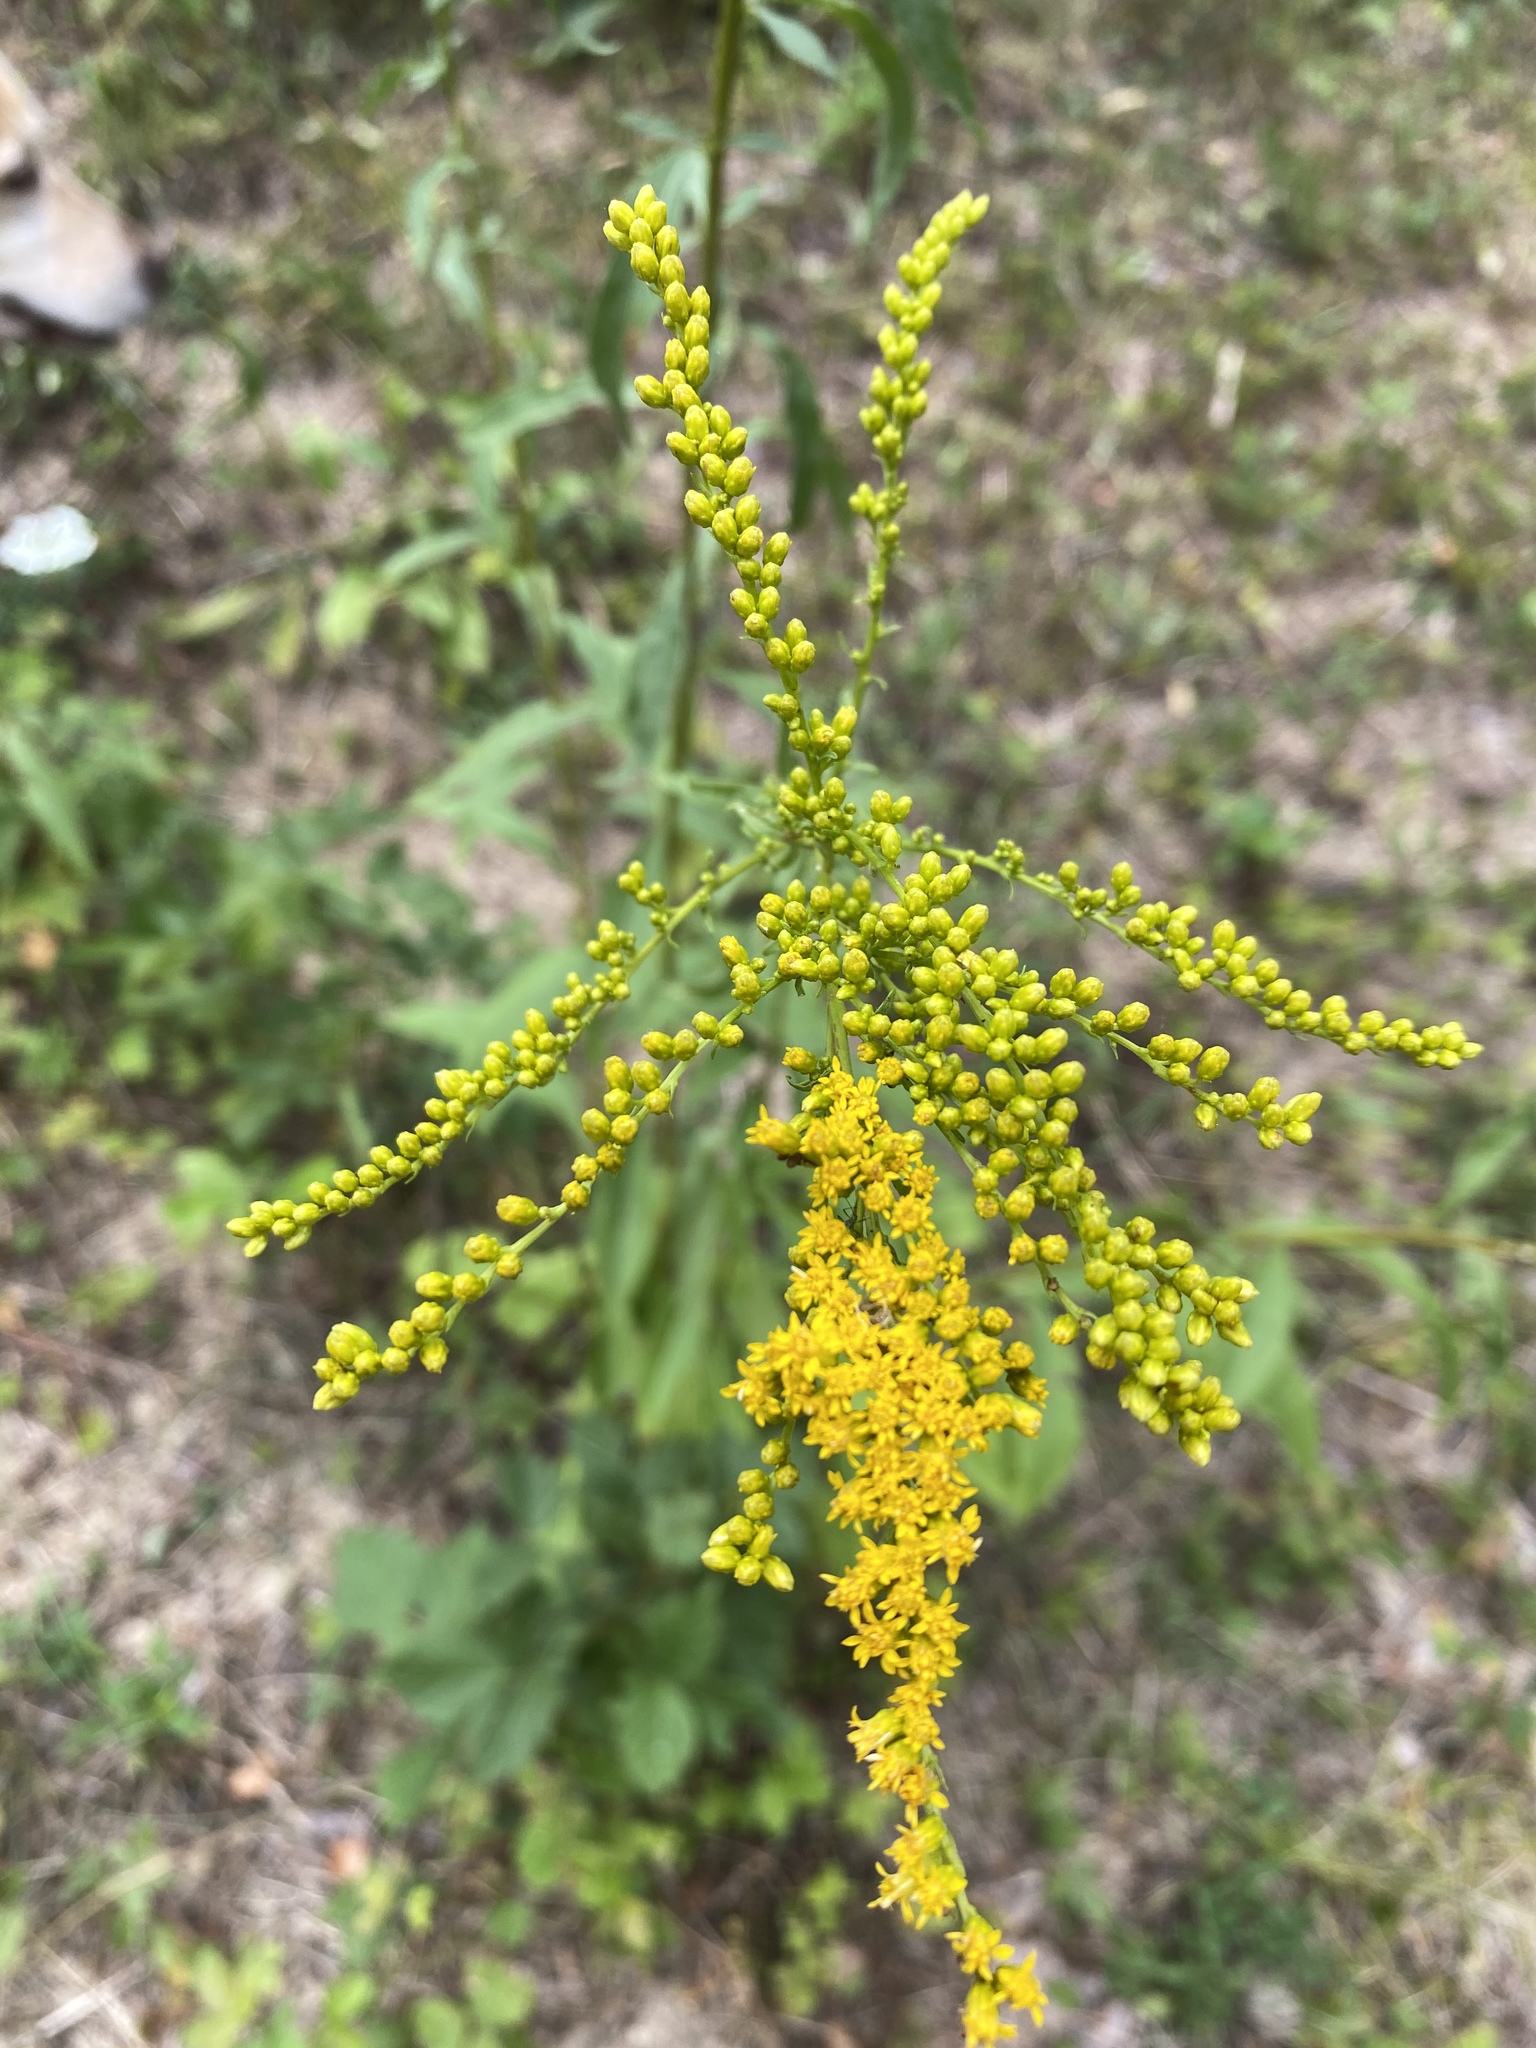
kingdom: Plantae
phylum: Tracheophyta
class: Magnoliopsida
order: Asterales
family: Asteraceae
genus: Solidago
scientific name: Solidago juncea
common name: Early goldenrod
